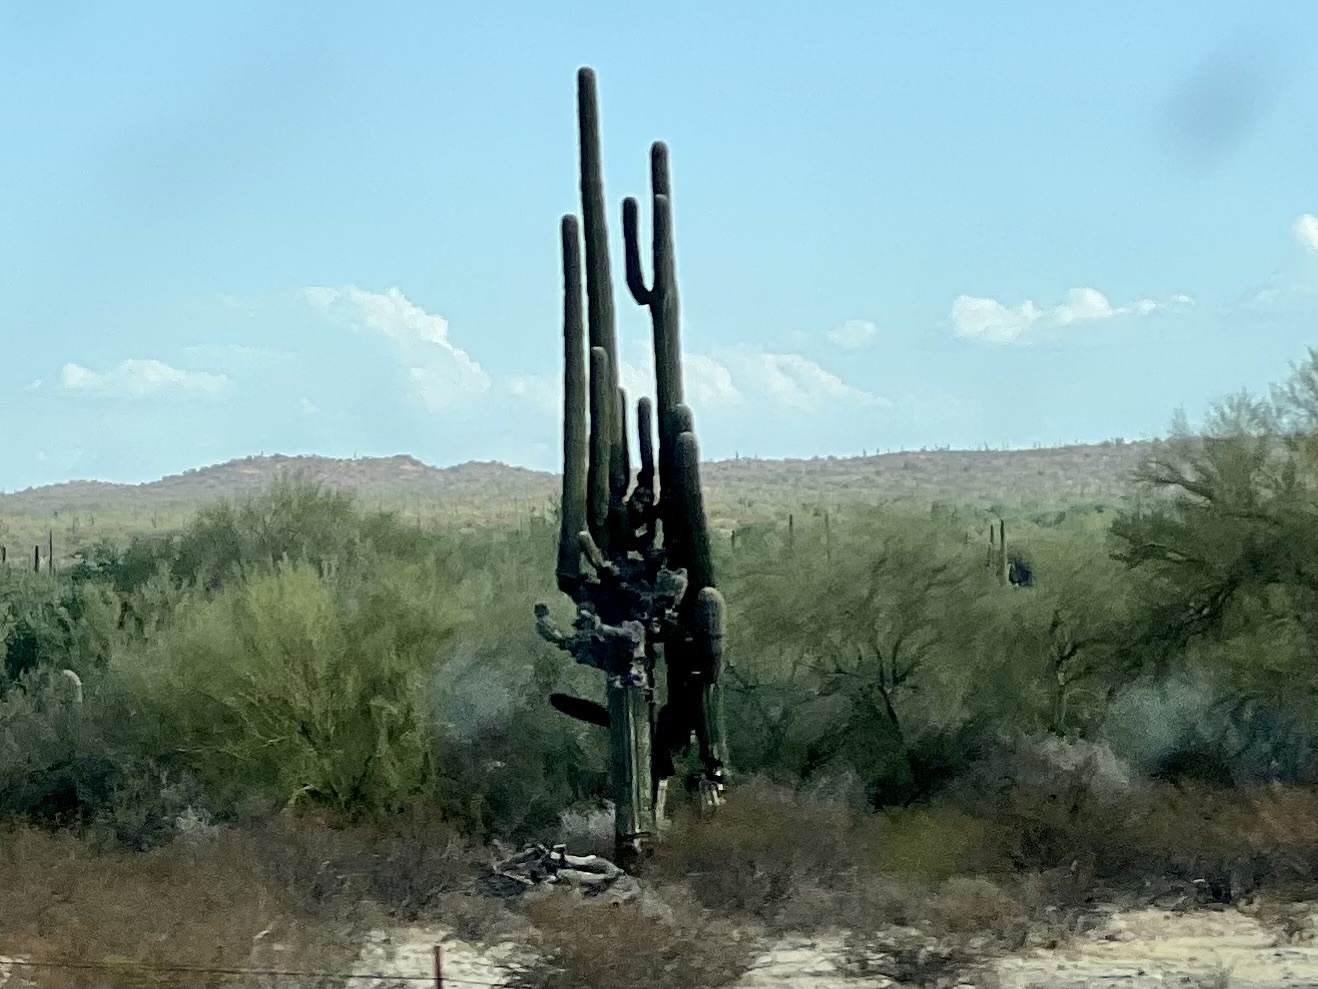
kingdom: Plantae
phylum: Tracheophyta
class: Magnoliopsida
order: Caryophyllales
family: Cactaceae
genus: Carnegiea
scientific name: Carnegiea gigantea
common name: Saguaro
